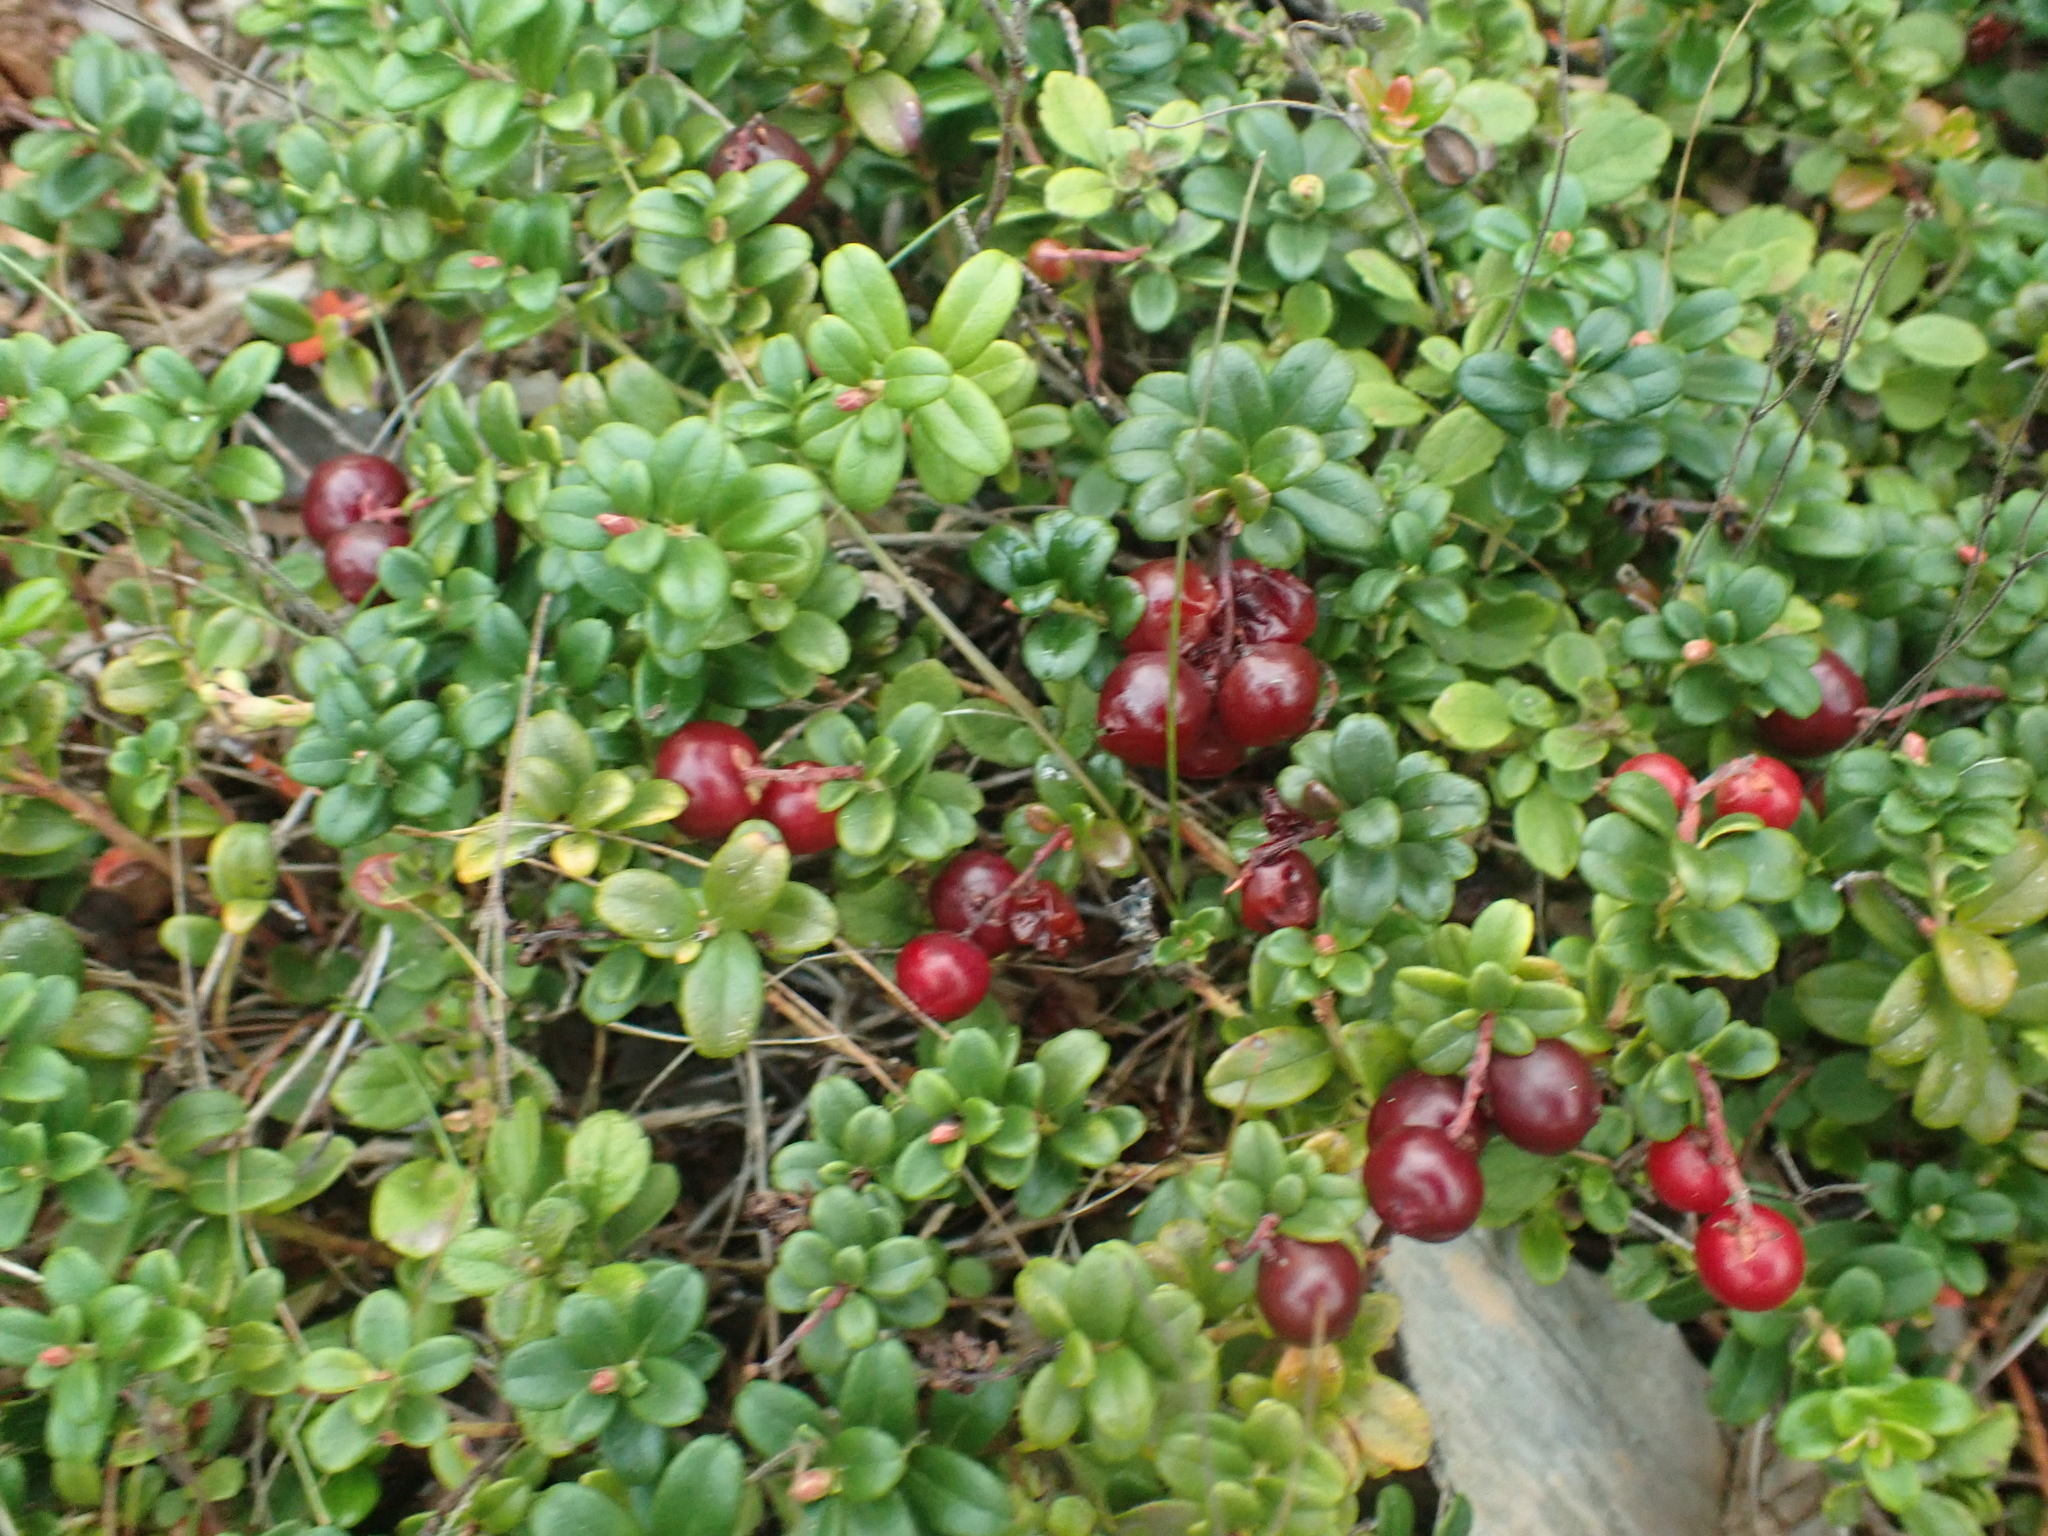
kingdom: Plantae
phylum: Tracheophyta
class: Magnoliopsida
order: Ericales
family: Ericaceae
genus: Vaccinium
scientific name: Vaccinium vitis-idaea
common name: Cowberry
